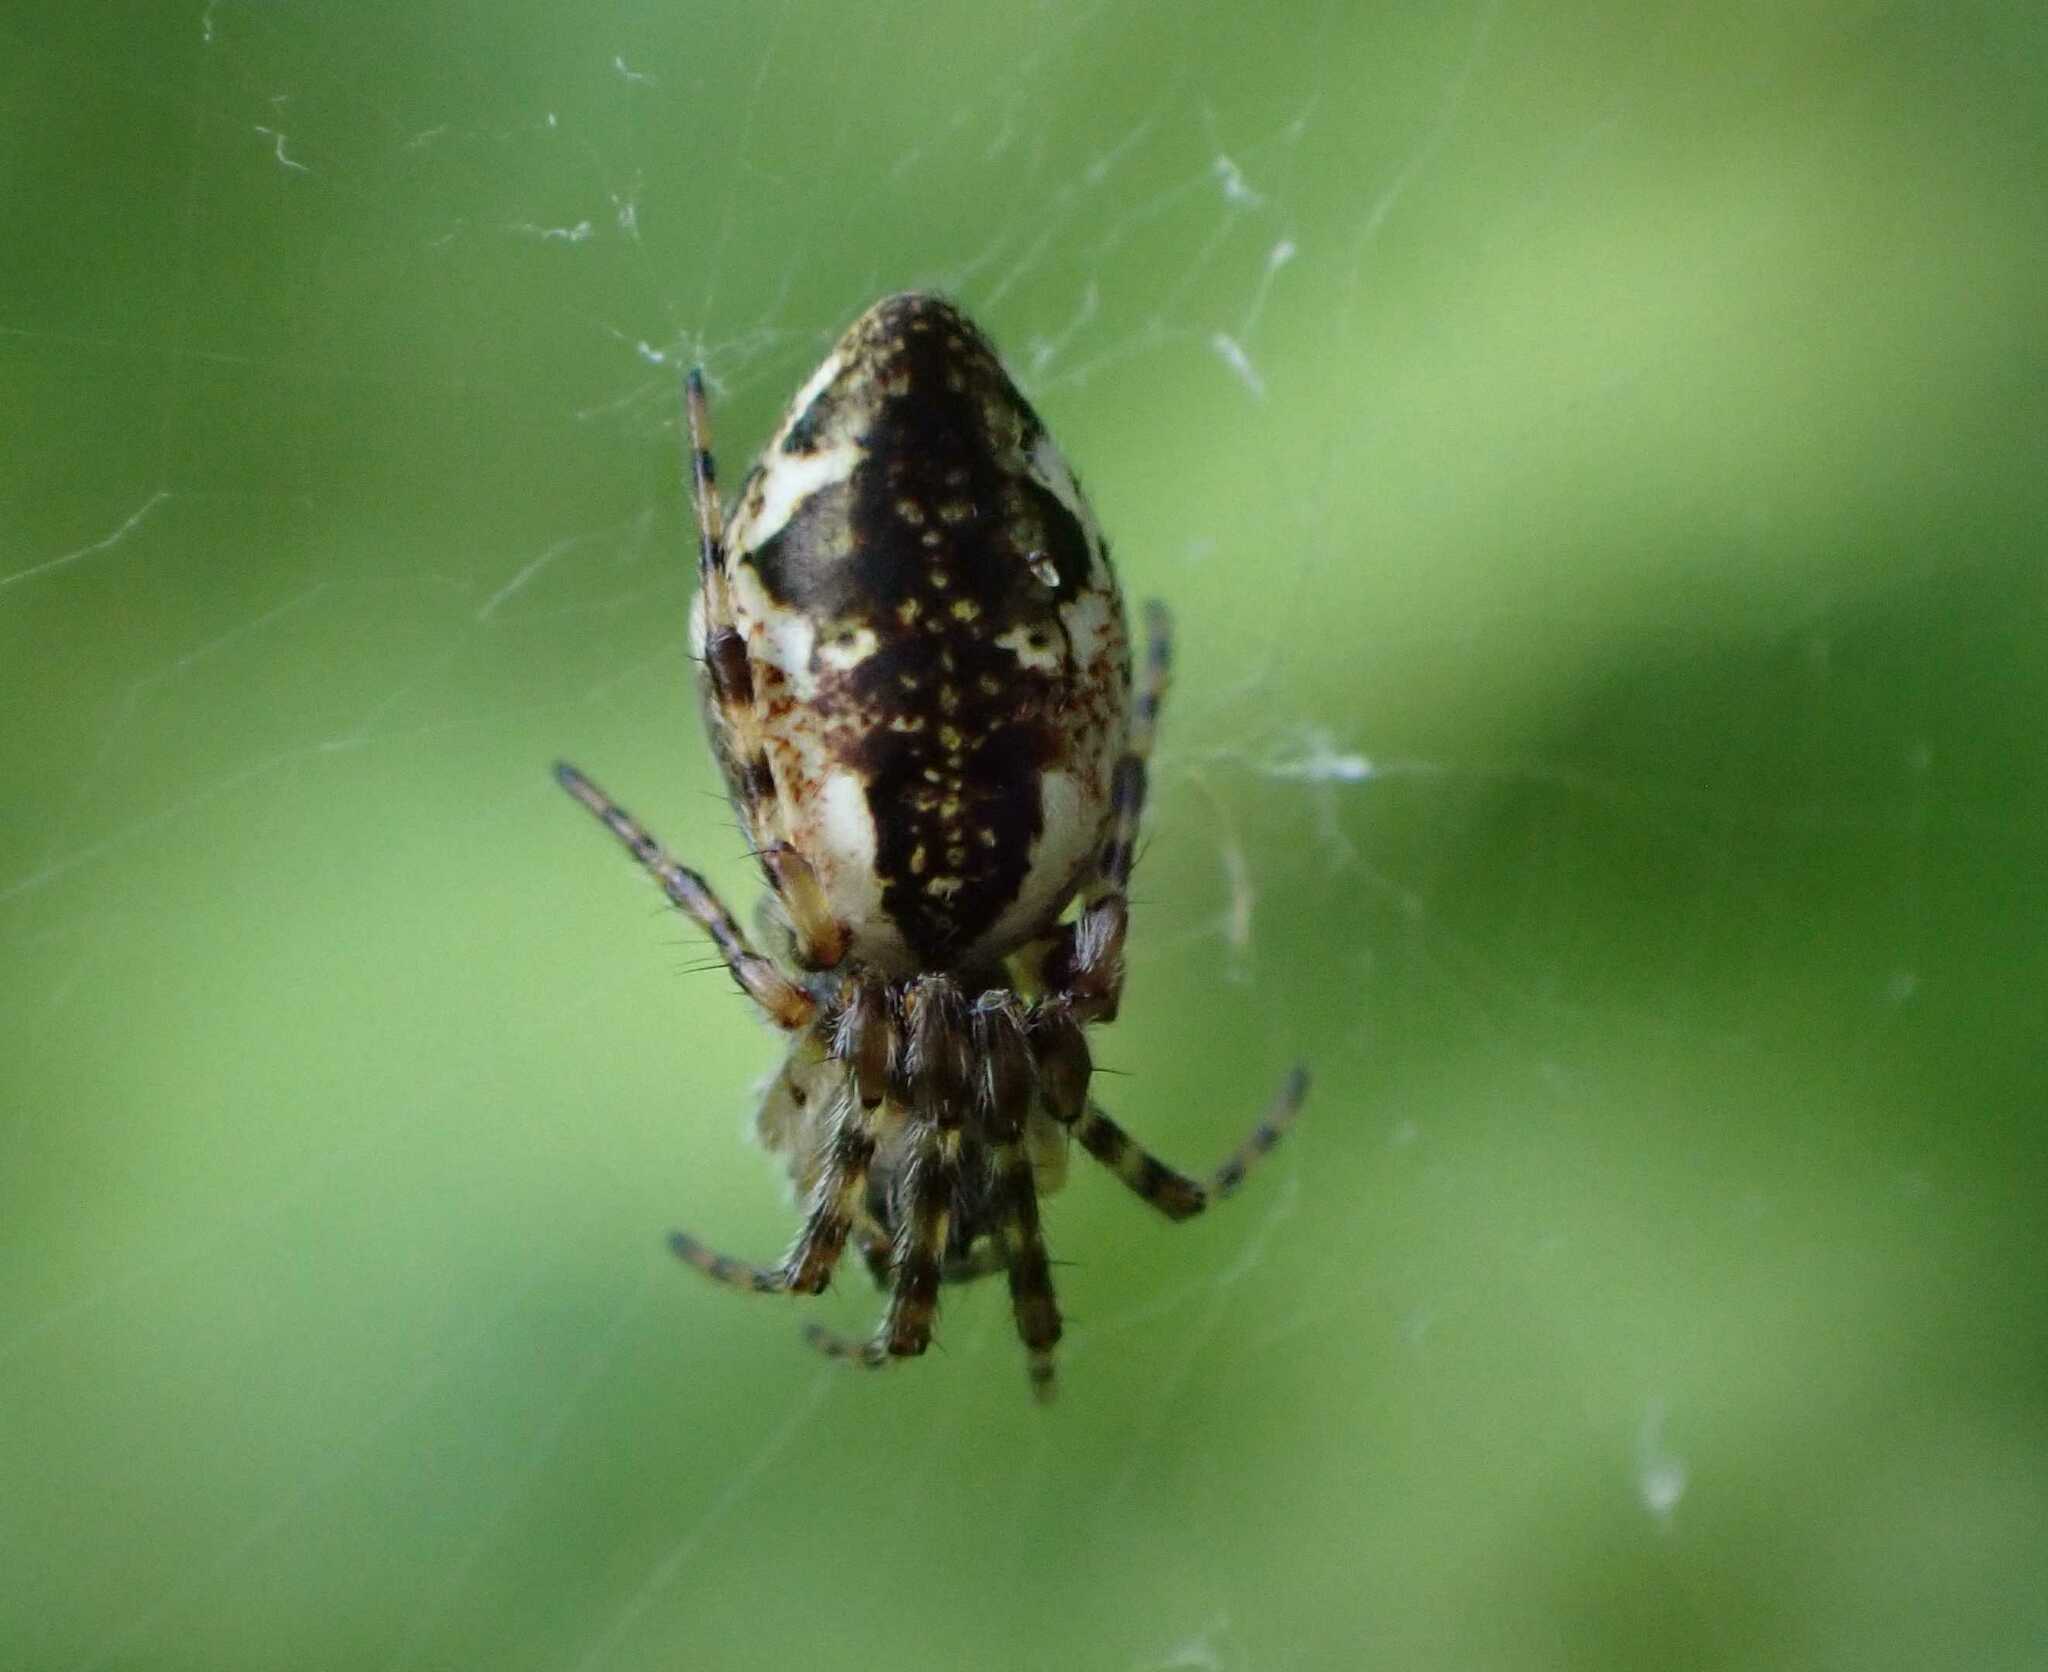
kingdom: Animalia
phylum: Arthropoda
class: Arachnida
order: Araneae
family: Araneidae
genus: Cyclosa
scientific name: Cyclosa conica
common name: Conical trashline orbweaver
